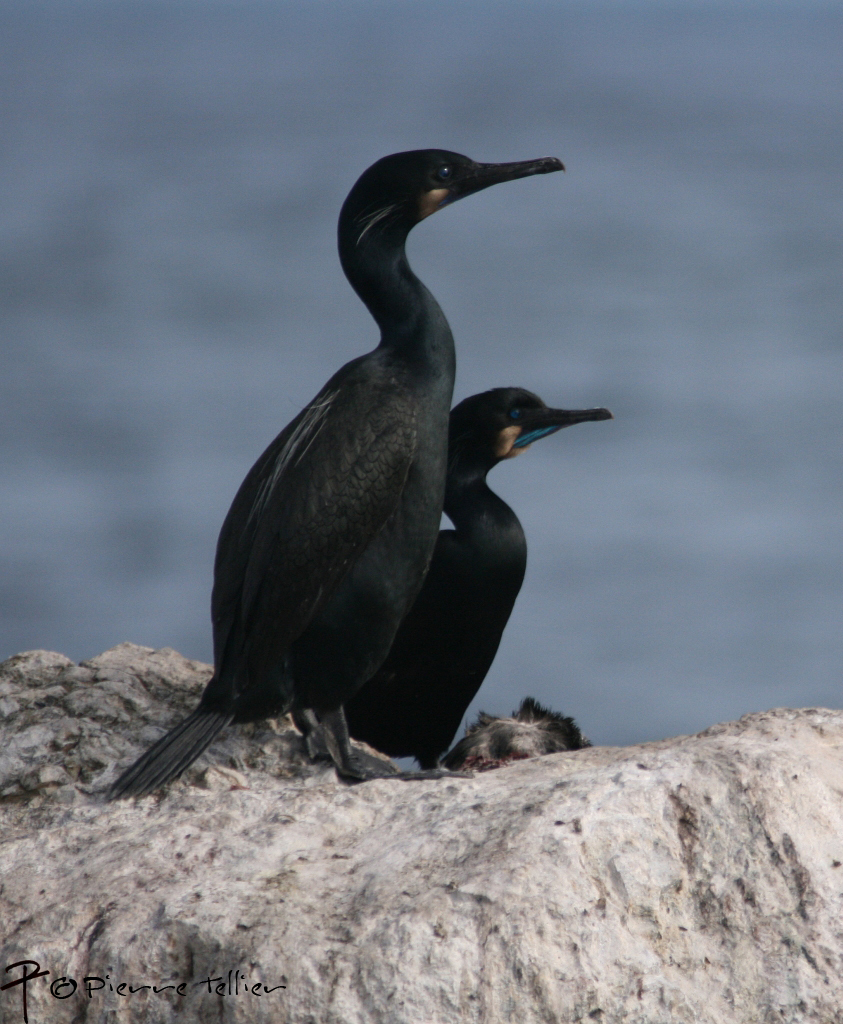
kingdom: Animalia
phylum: Chordata
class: Aves
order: Suliformes
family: Phalacrocoracidae
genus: Urile
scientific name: Urile penicillatus
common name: Brandt's cormorant
